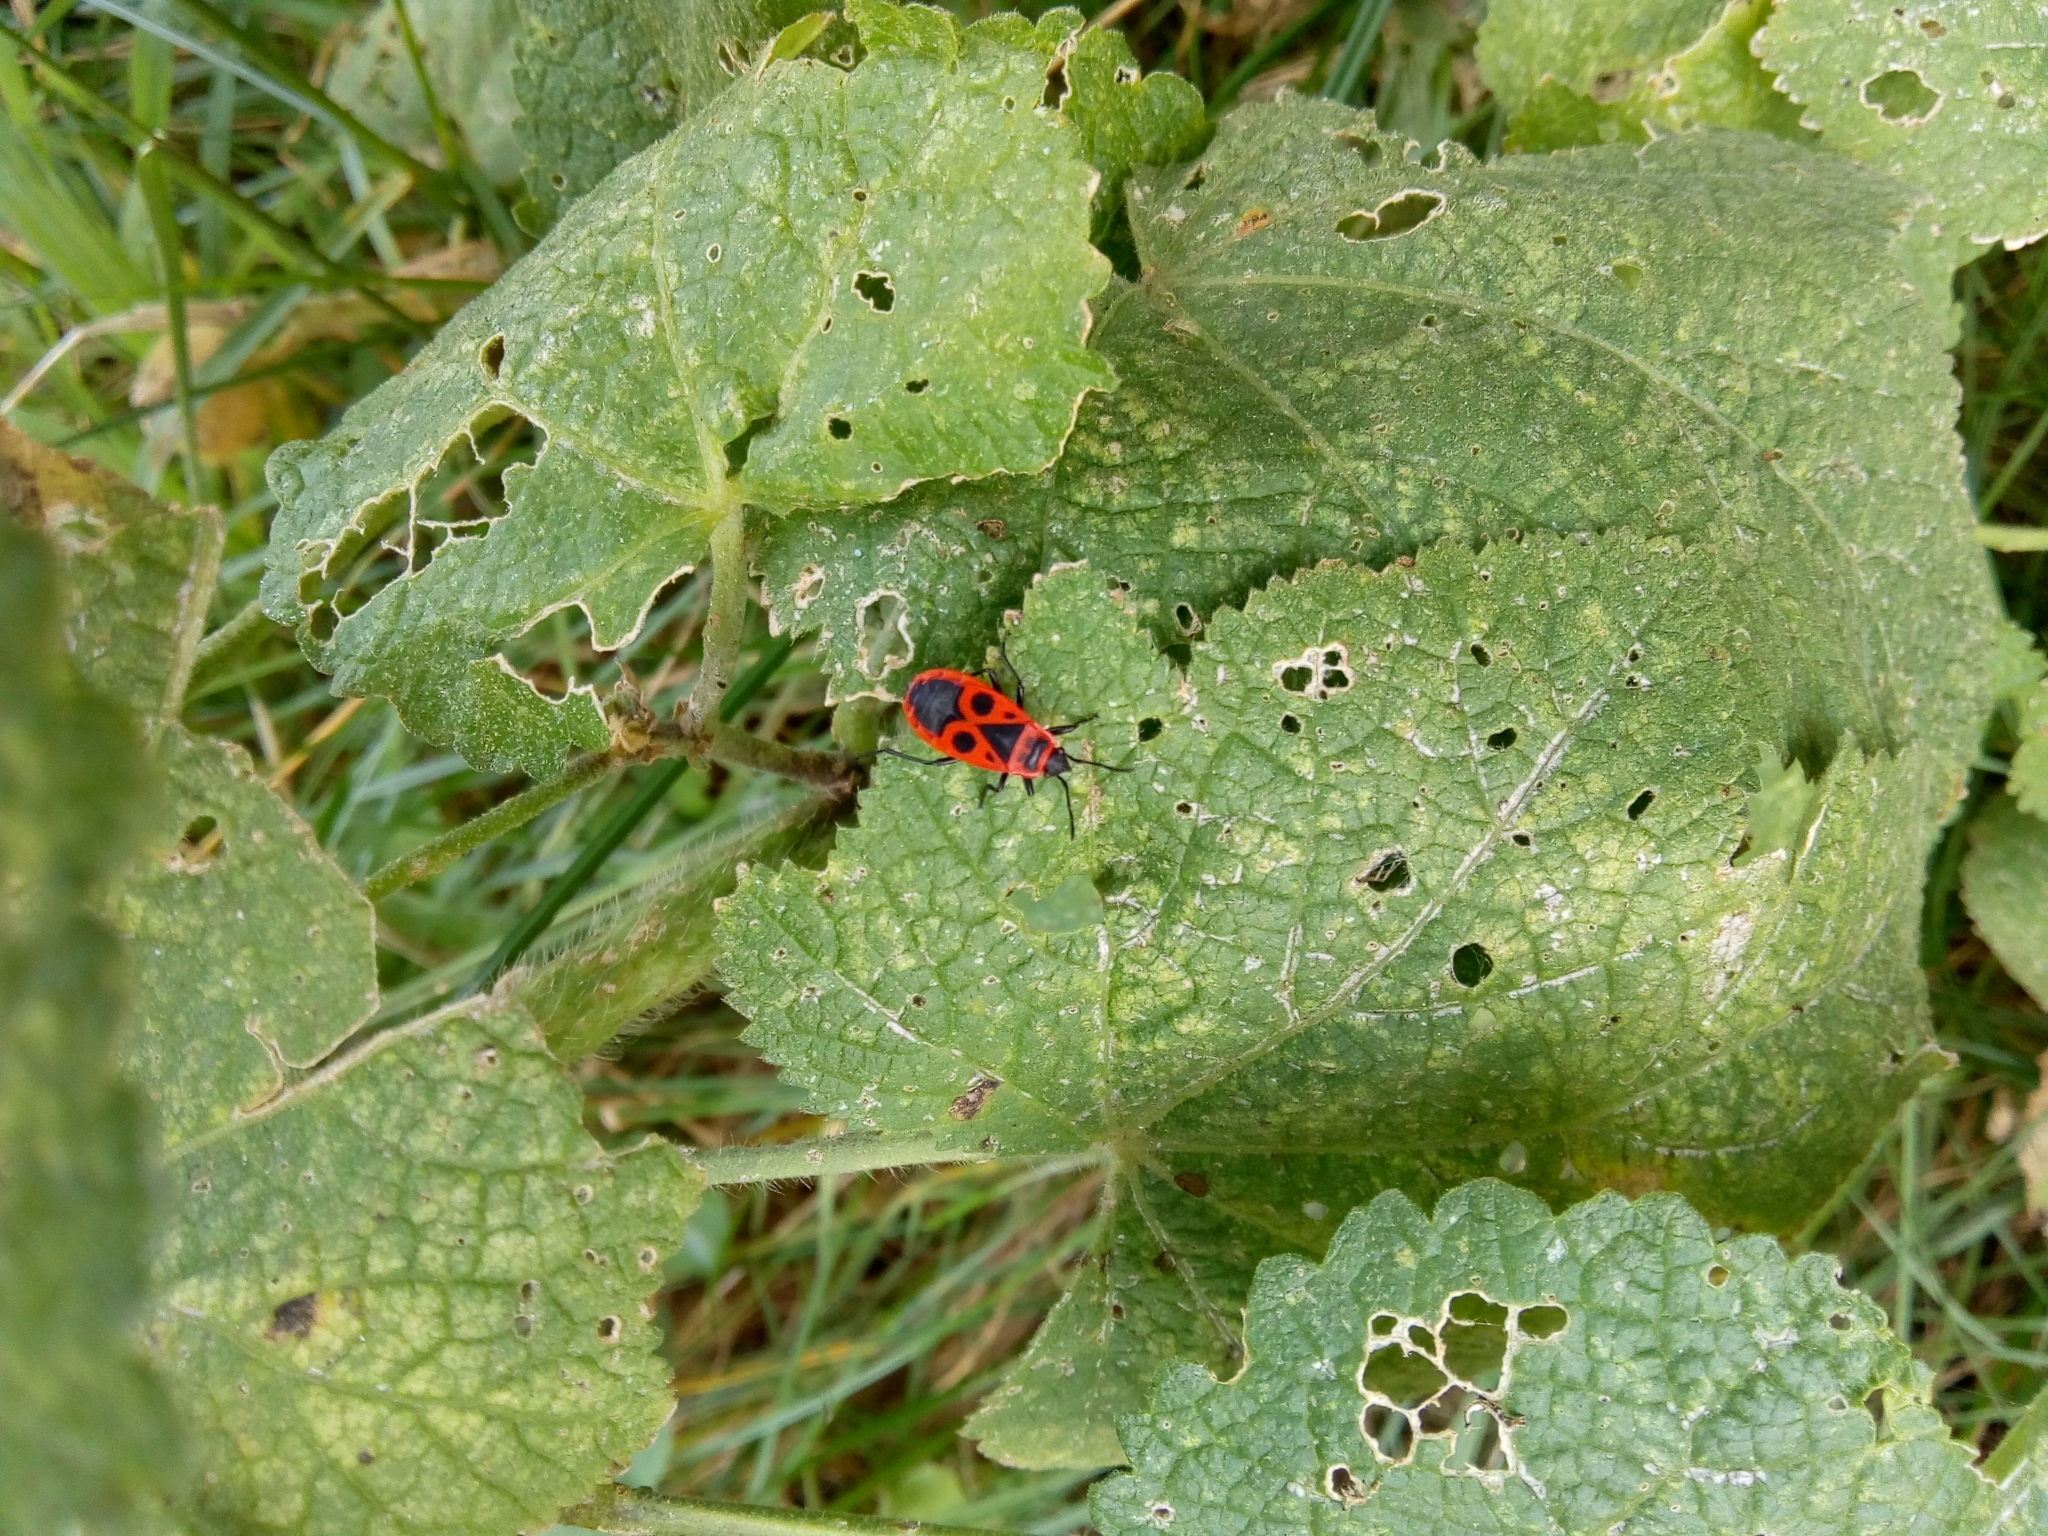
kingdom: Animalia
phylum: Arthropoda
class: Insecta
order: Hemiptera
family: Pyrrhocoridae
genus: Pyrrhocoris
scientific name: Pyrrhocoris apterus
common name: Firebug
